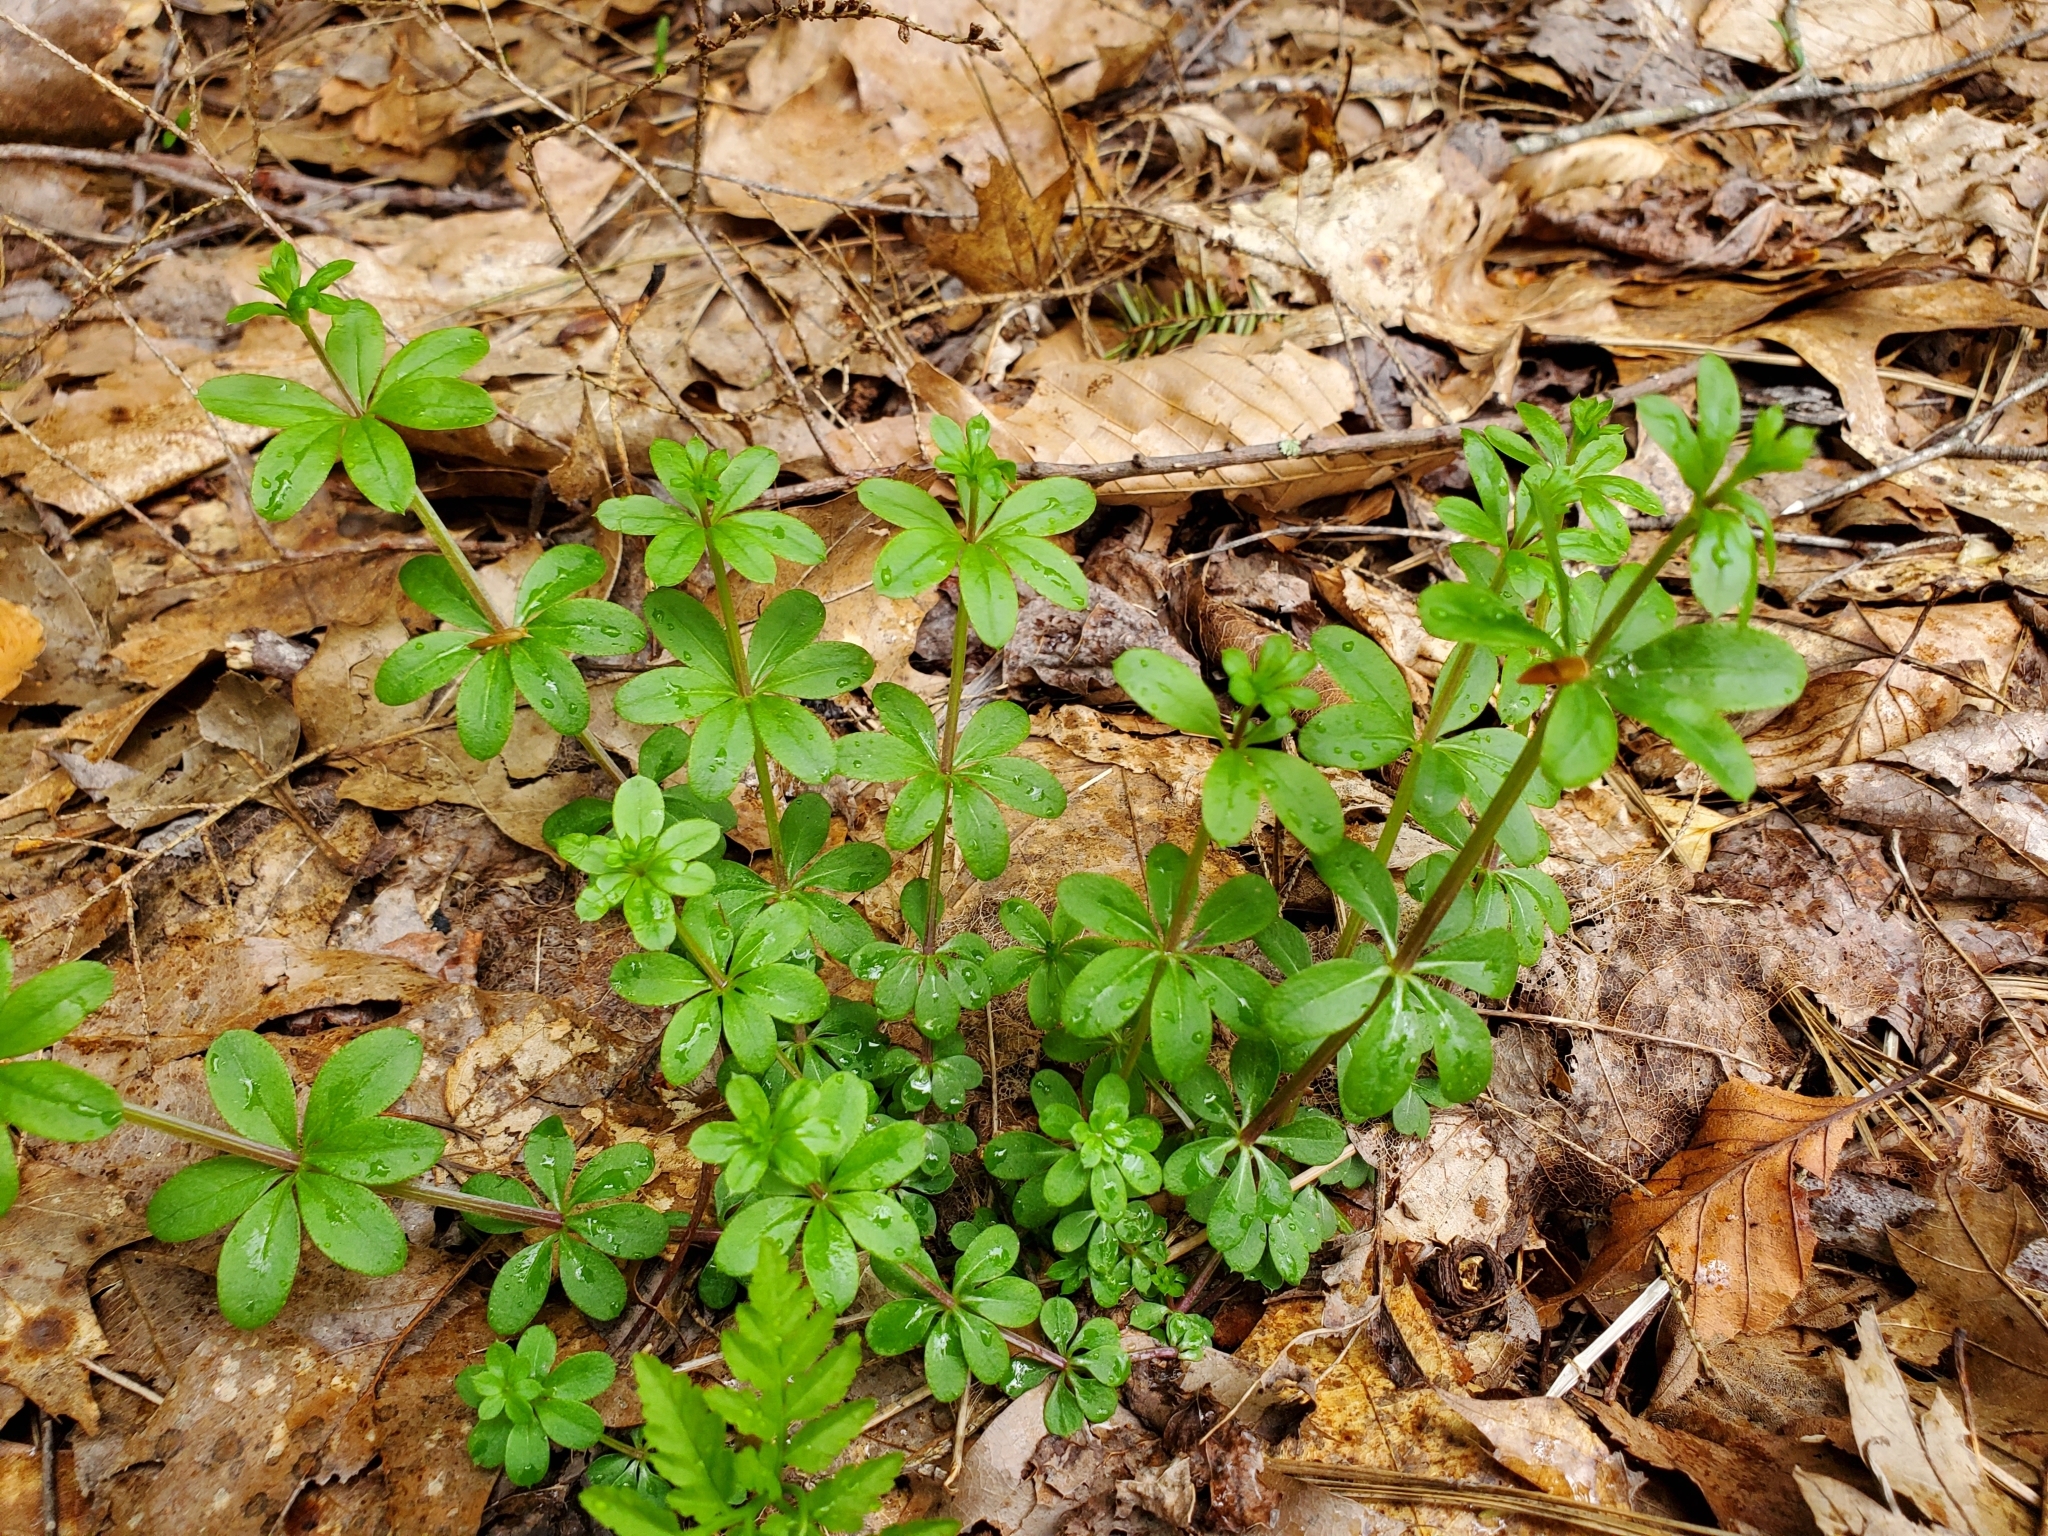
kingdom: Plantae
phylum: Tracheophyta
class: Magnoliopsida
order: Gentianales
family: Rubiaceae
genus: Galium
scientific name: Galium triflorum
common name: Fragrant bedstraw
